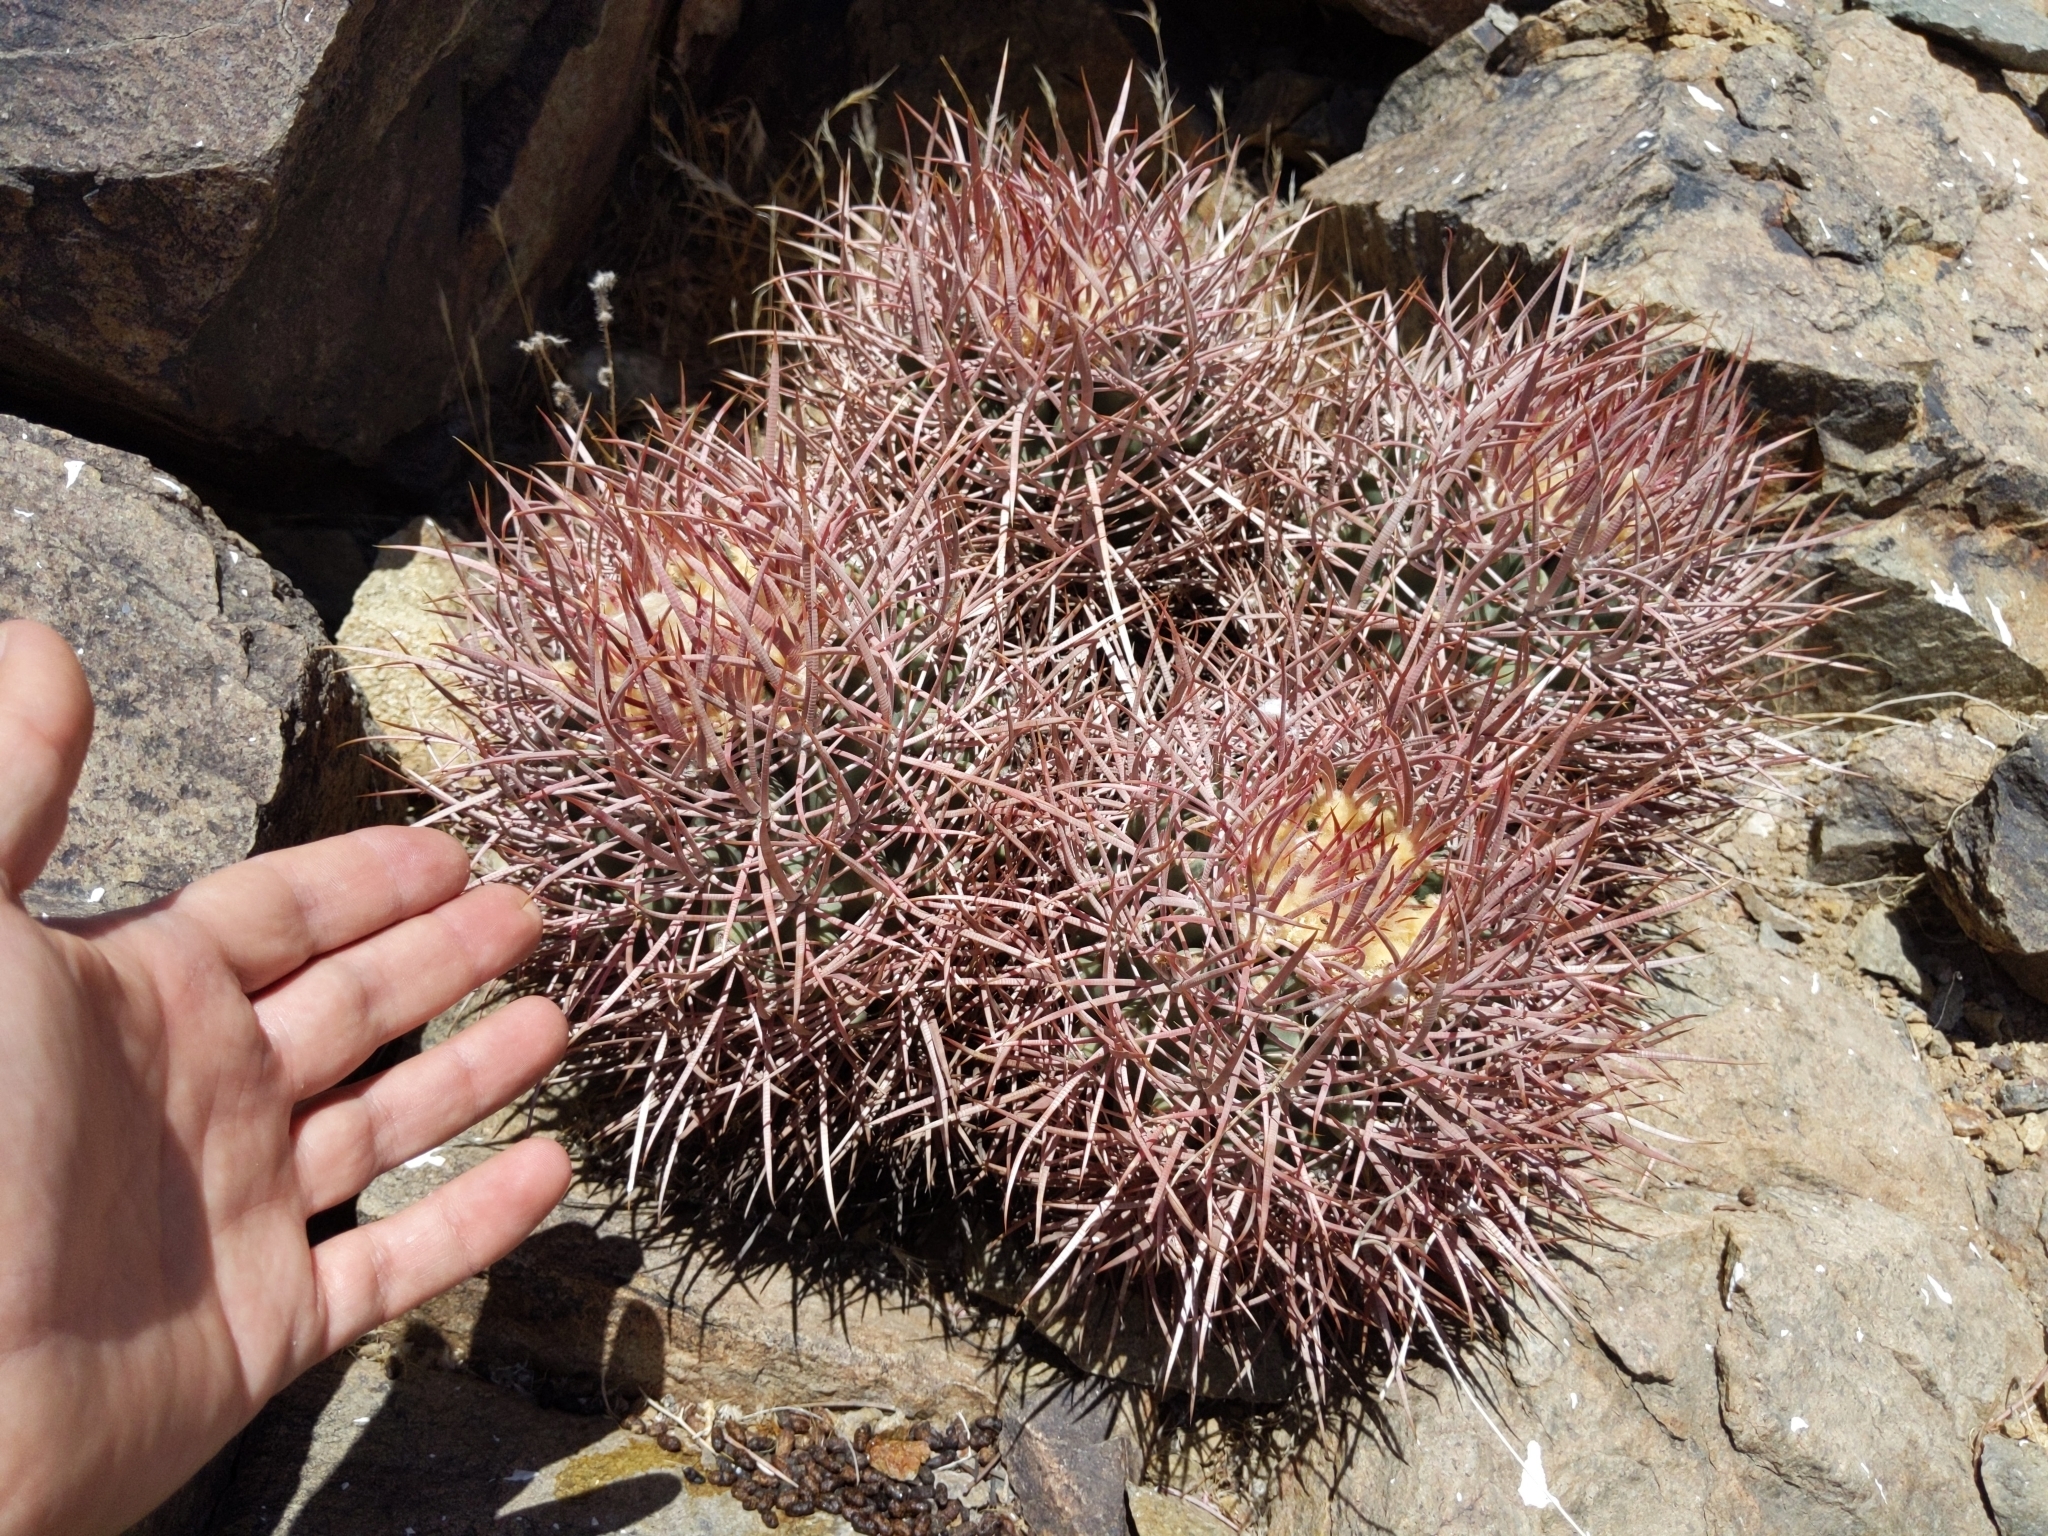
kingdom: Plantae
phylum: Tracheophyta
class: Magnoliopsida
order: Caryophyllales
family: Cactaceae
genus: Echinocactus
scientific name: Echinocactus polycephalus
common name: Cottontop cactus
